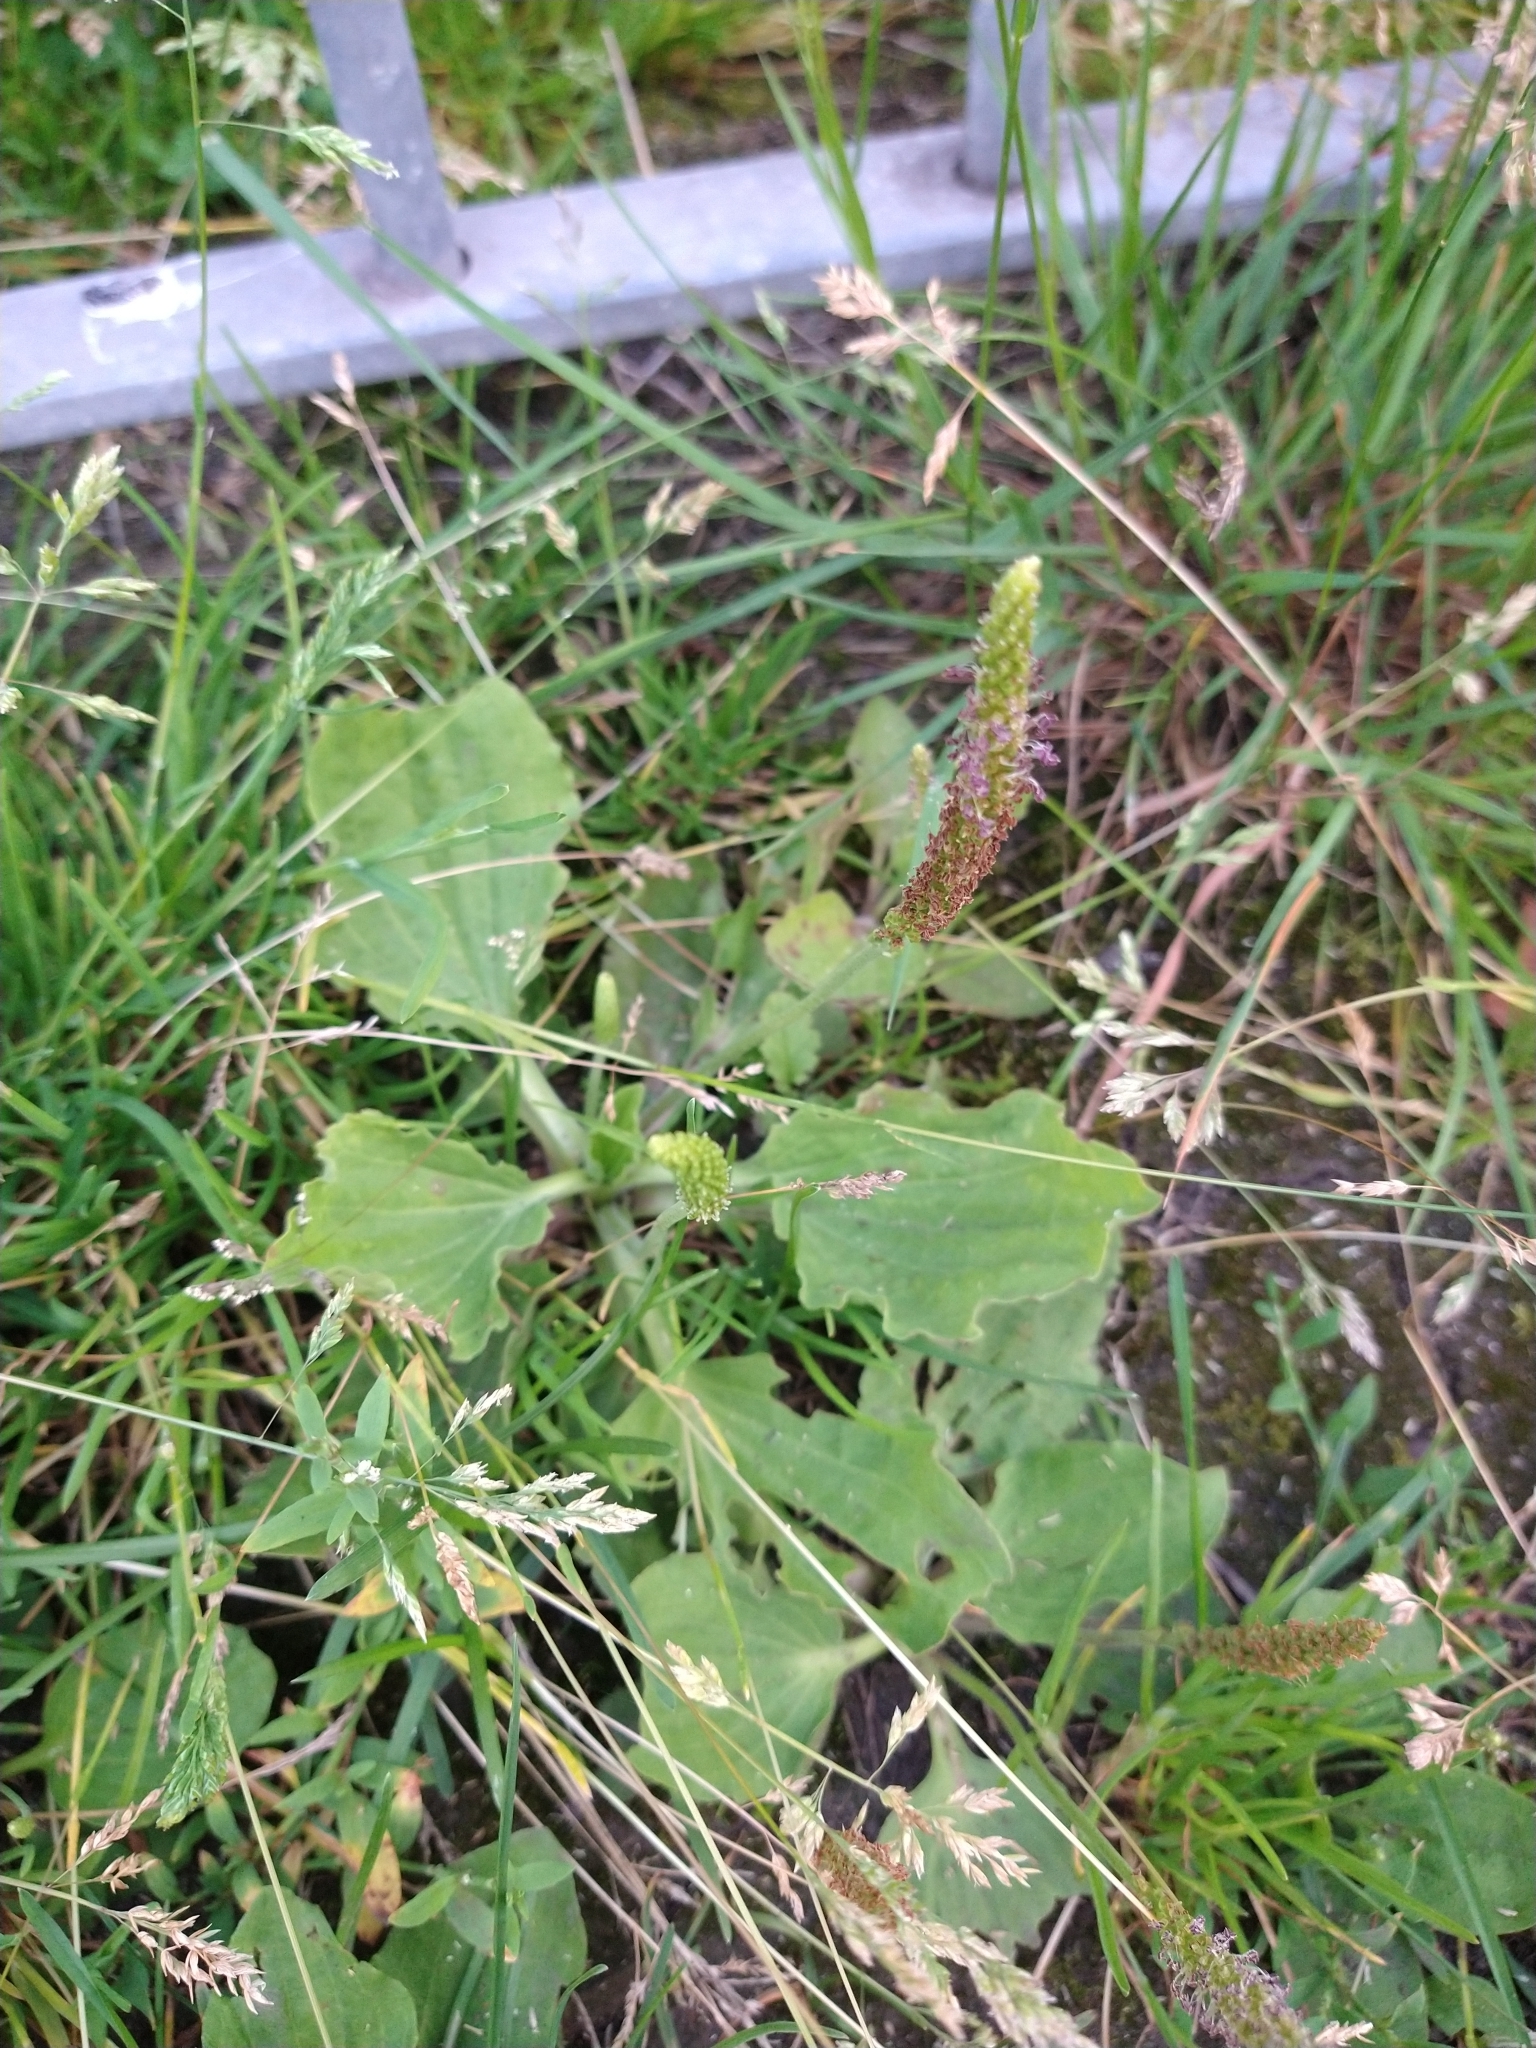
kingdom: Plantae
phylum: Tracheophyta
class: Magnoliopsida
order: Lamiales
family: Plantaginaceae
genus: Plantago
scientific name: Plantago major
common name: Common plantain
